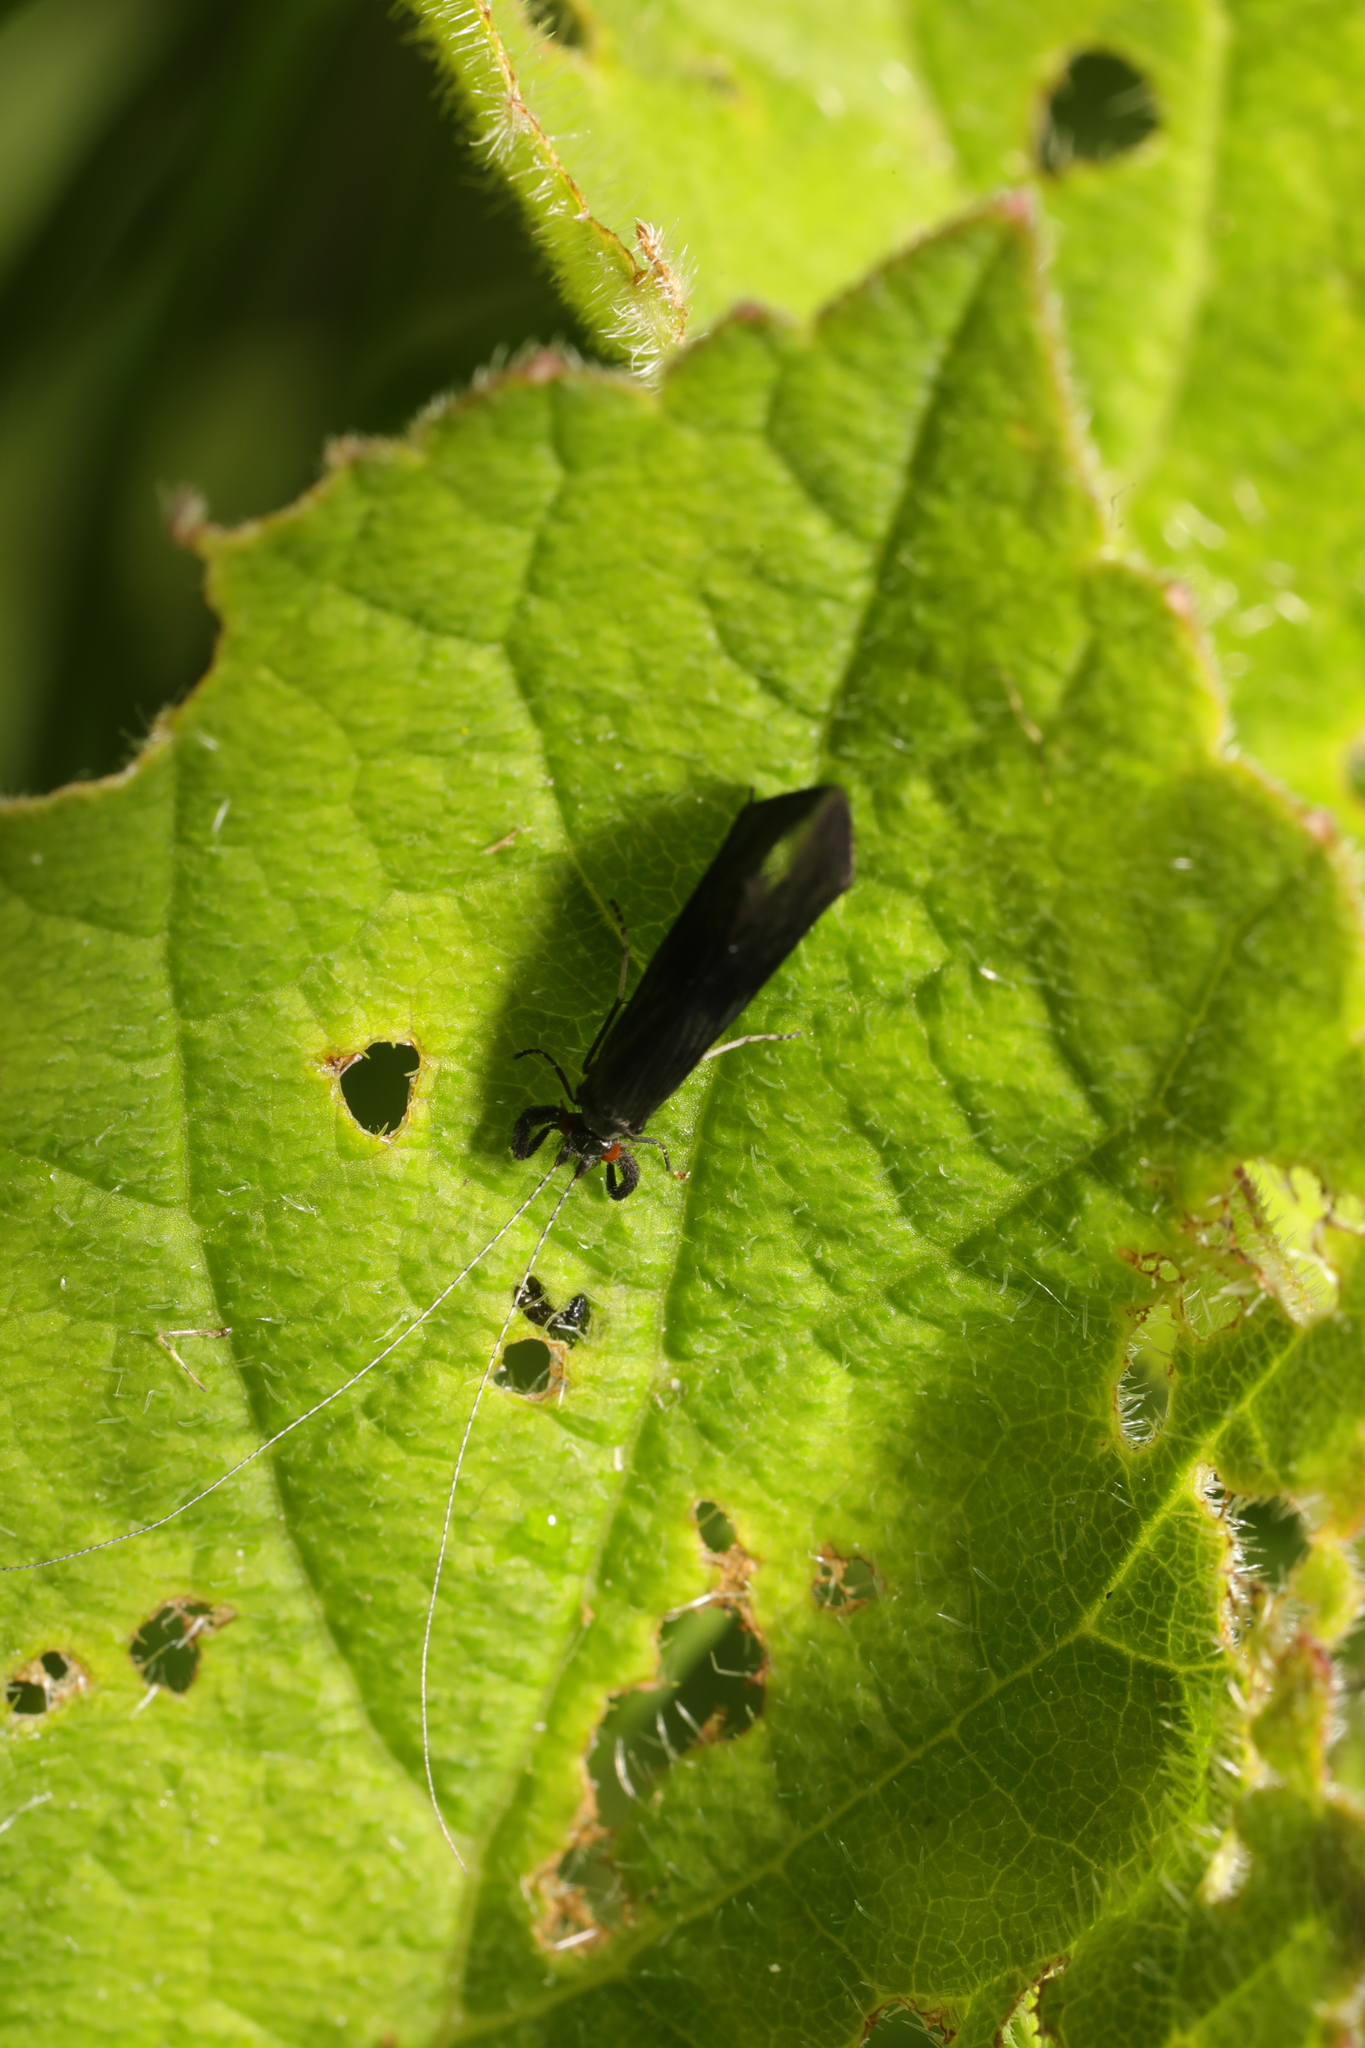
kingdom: Animalia
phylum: Arthropoda
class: Insecta
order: Trichoptera
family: Leptoceridae
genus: Mystacides
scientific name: Mystacides azureus
